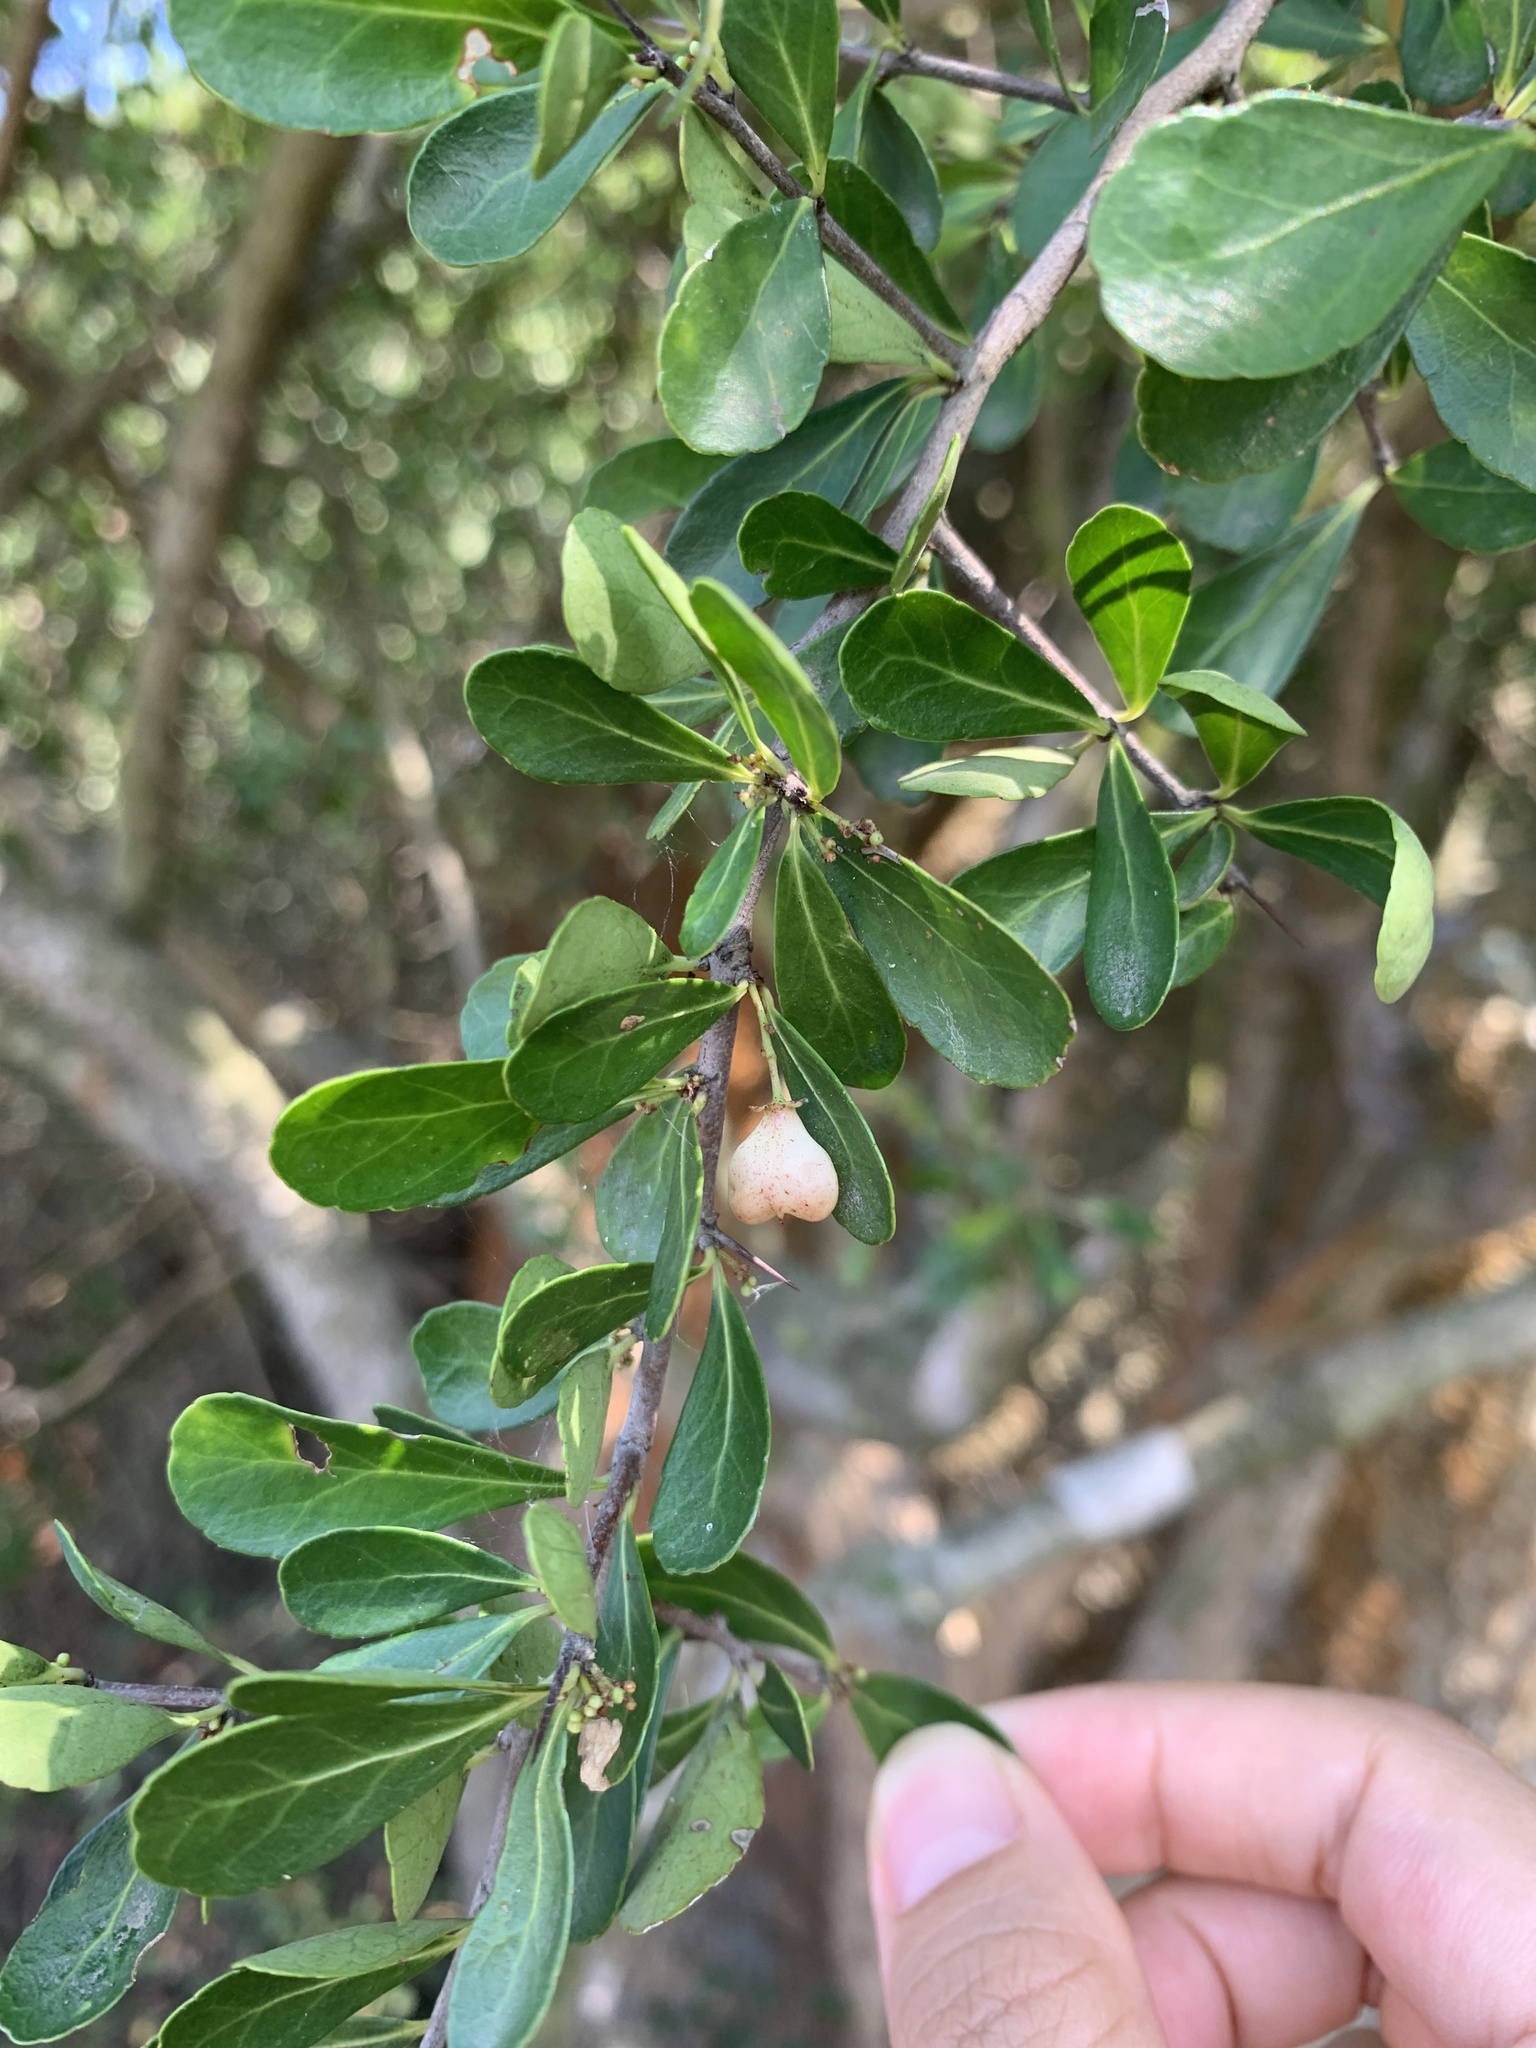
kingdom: Plantae
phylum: Tracheophyta
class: Magnoliopsida
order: Celastrales
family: Celastraceae
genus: Gymnosporia
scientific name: Gymnosporia diversifolia
